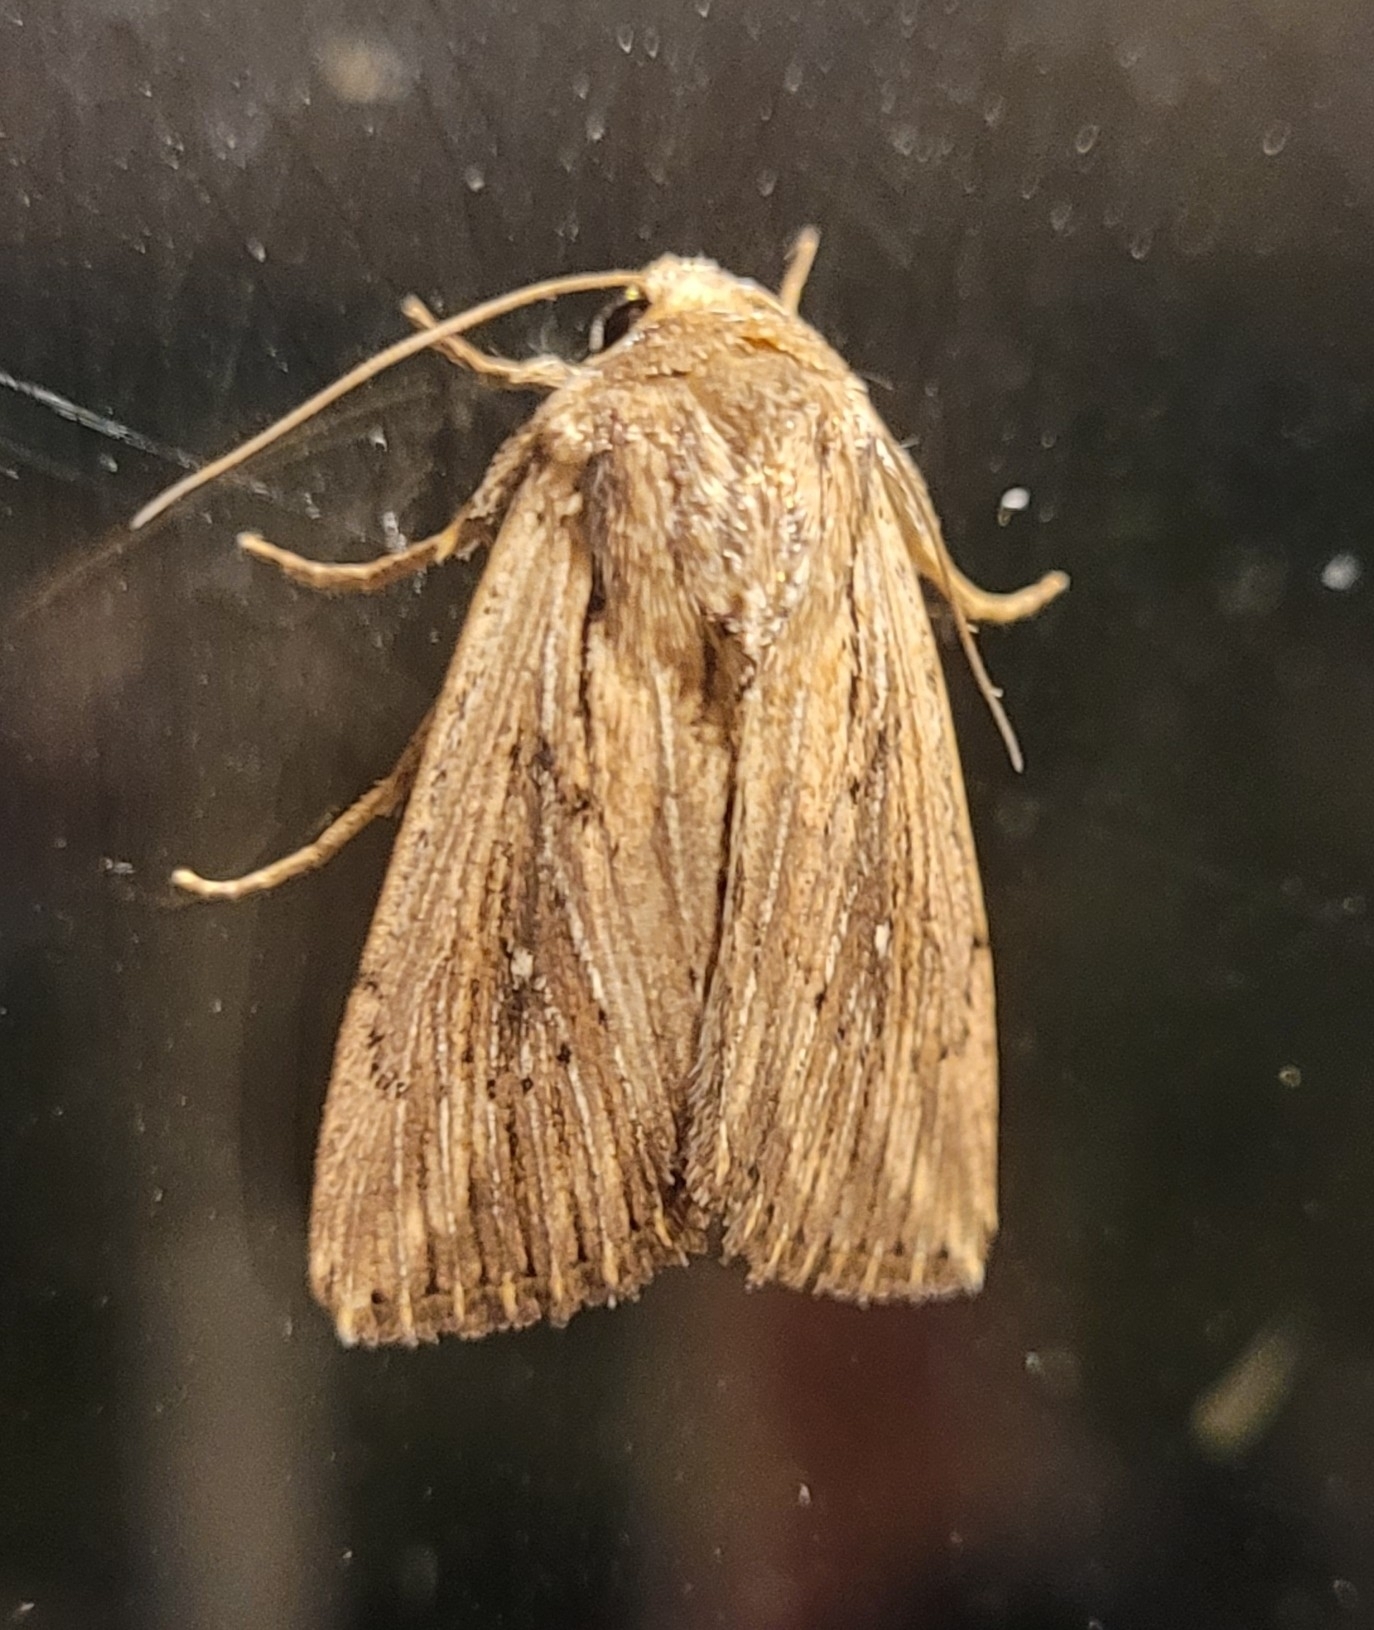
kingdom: Animalia
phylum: Arthropoda
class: Insecta
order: Lepidoptera
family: Noctuidae
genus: Leucania
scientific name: Leucania putrescens
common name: Devonshire wainscot
